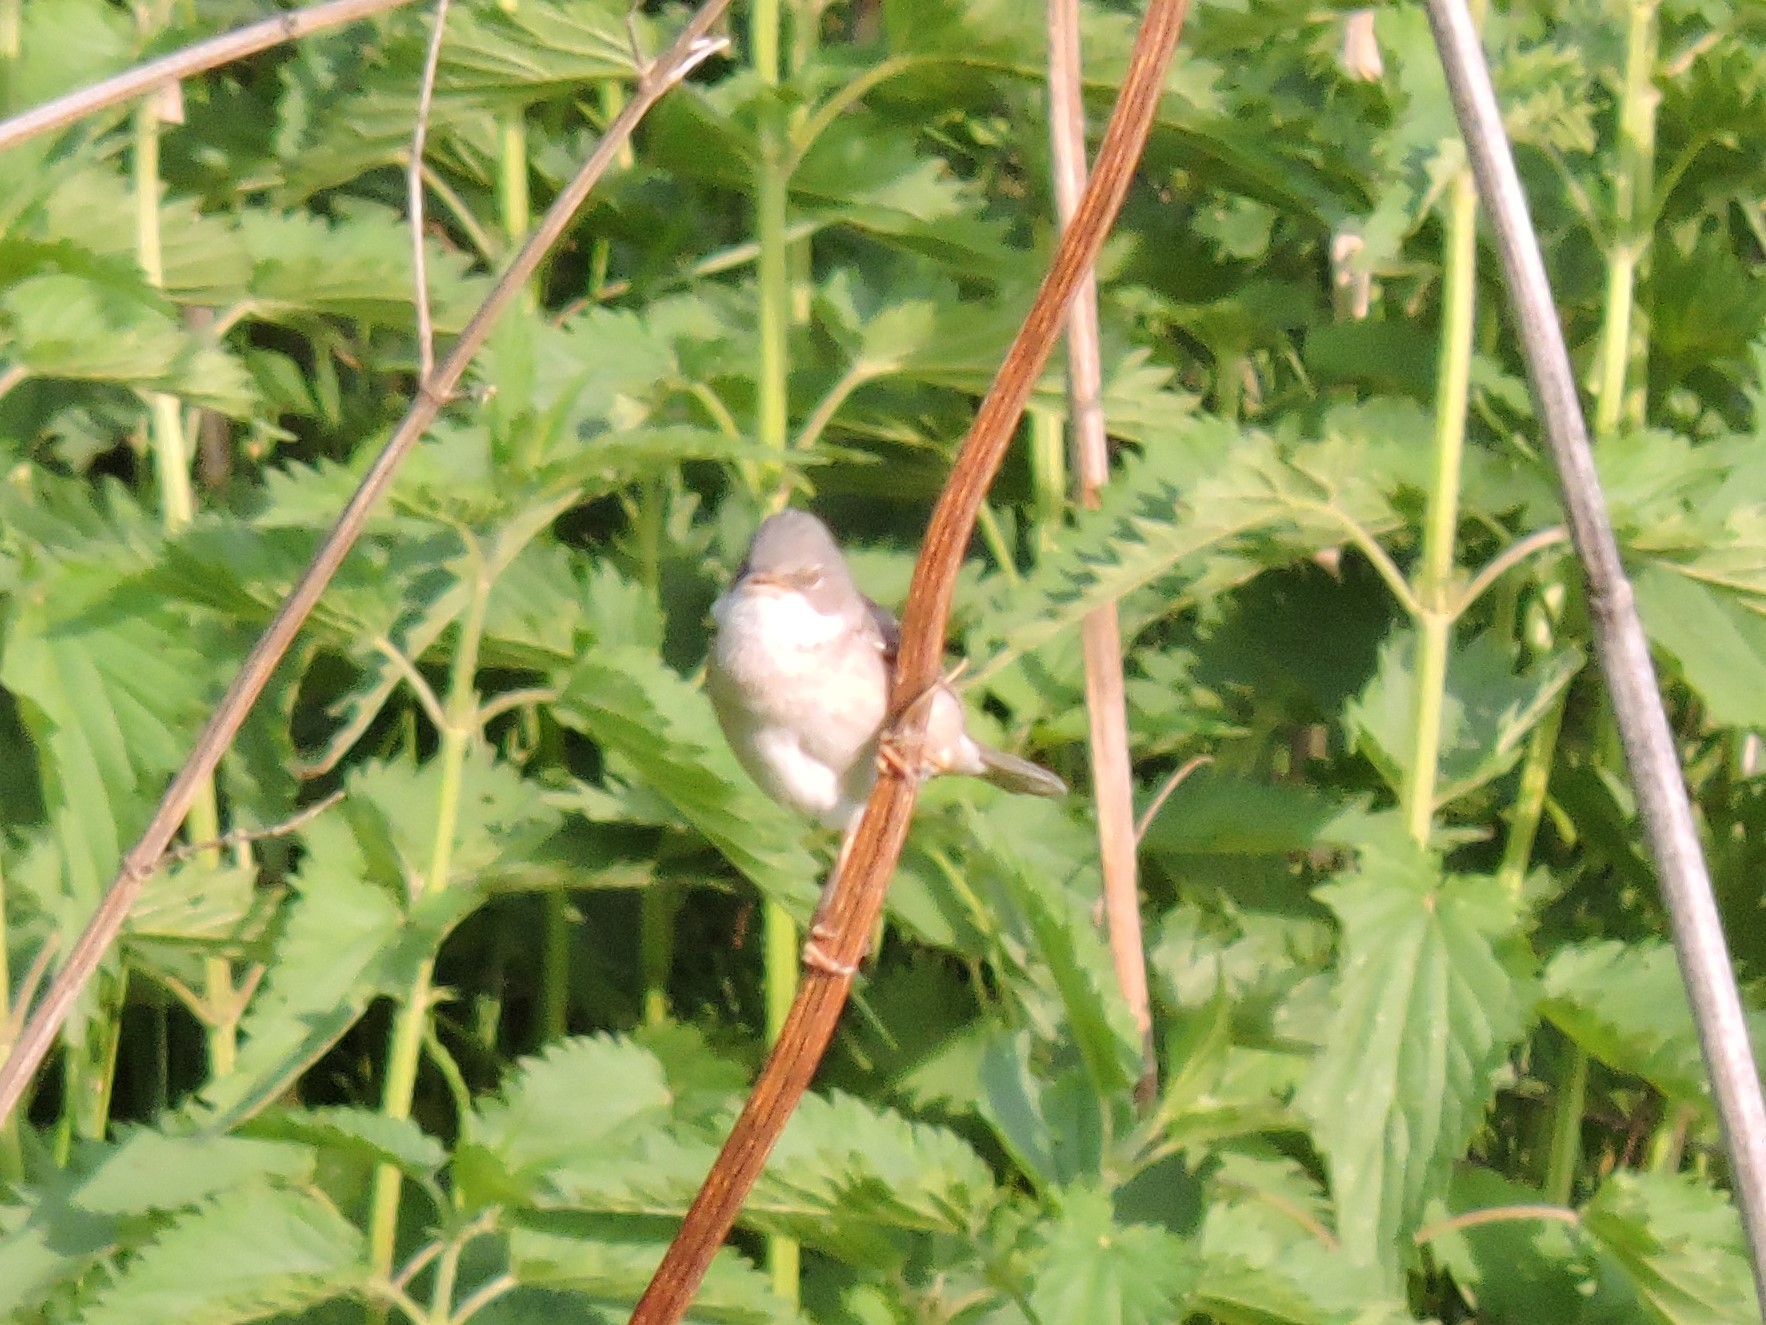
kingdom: Animalia
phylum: Chordata
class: Aves
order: Passeriformes
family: Sylviidae
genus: Sylvia
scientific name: Sylvia communis
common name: Common whitethroat
